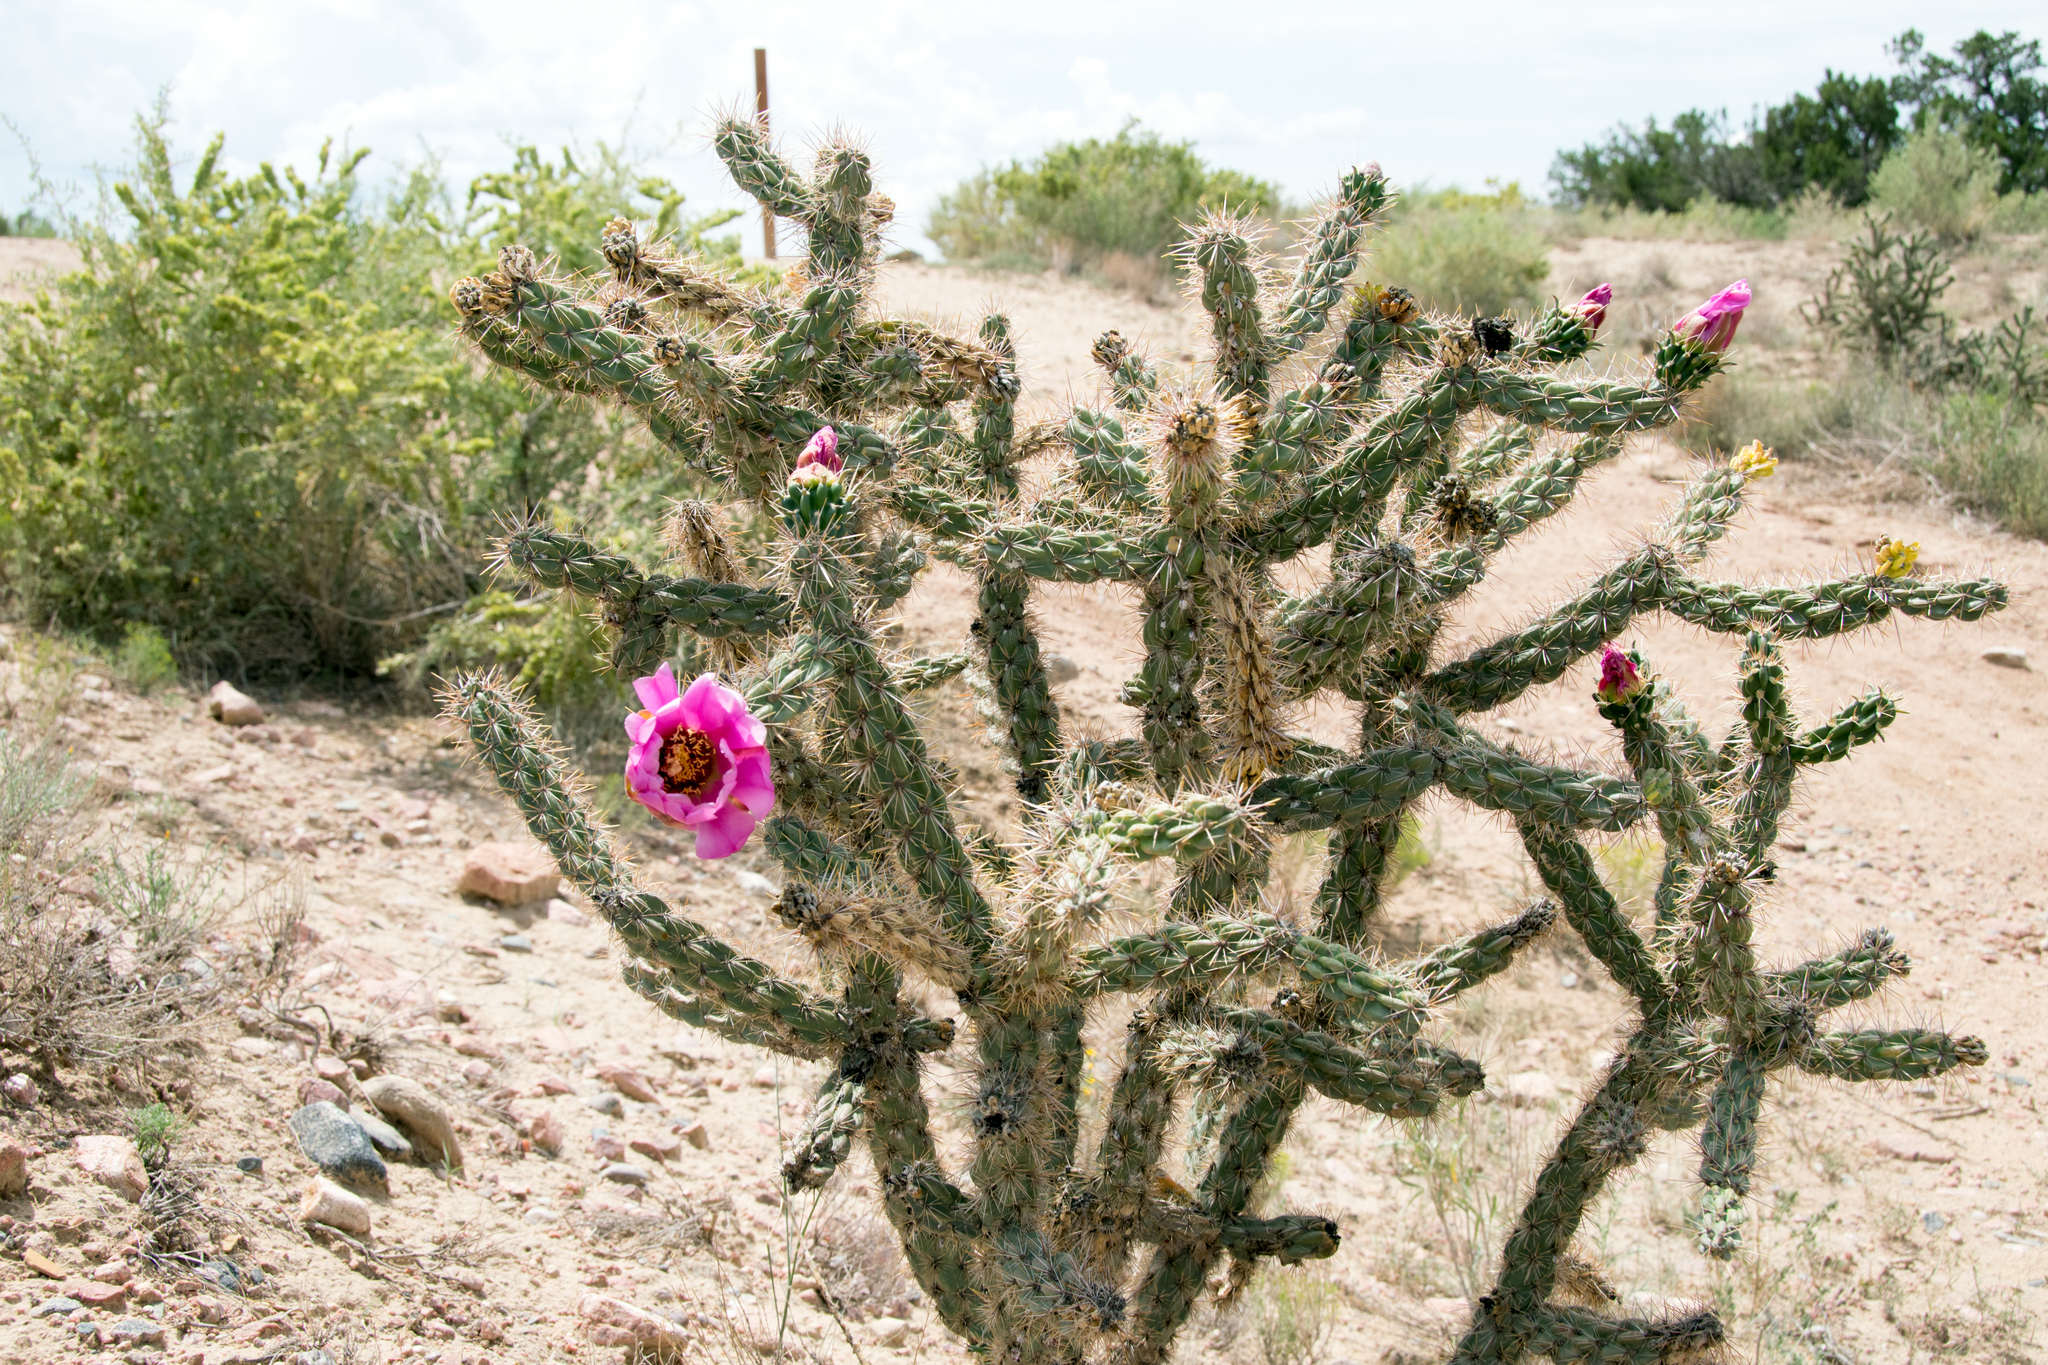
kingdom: Plantae
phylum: Tracheophyta
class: Magnoliopsida
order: Caryophyllales
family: Cactaceae
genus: Cylindropuntia
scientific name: Cylindropuntia imbricata
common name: Candelabrum cactus
